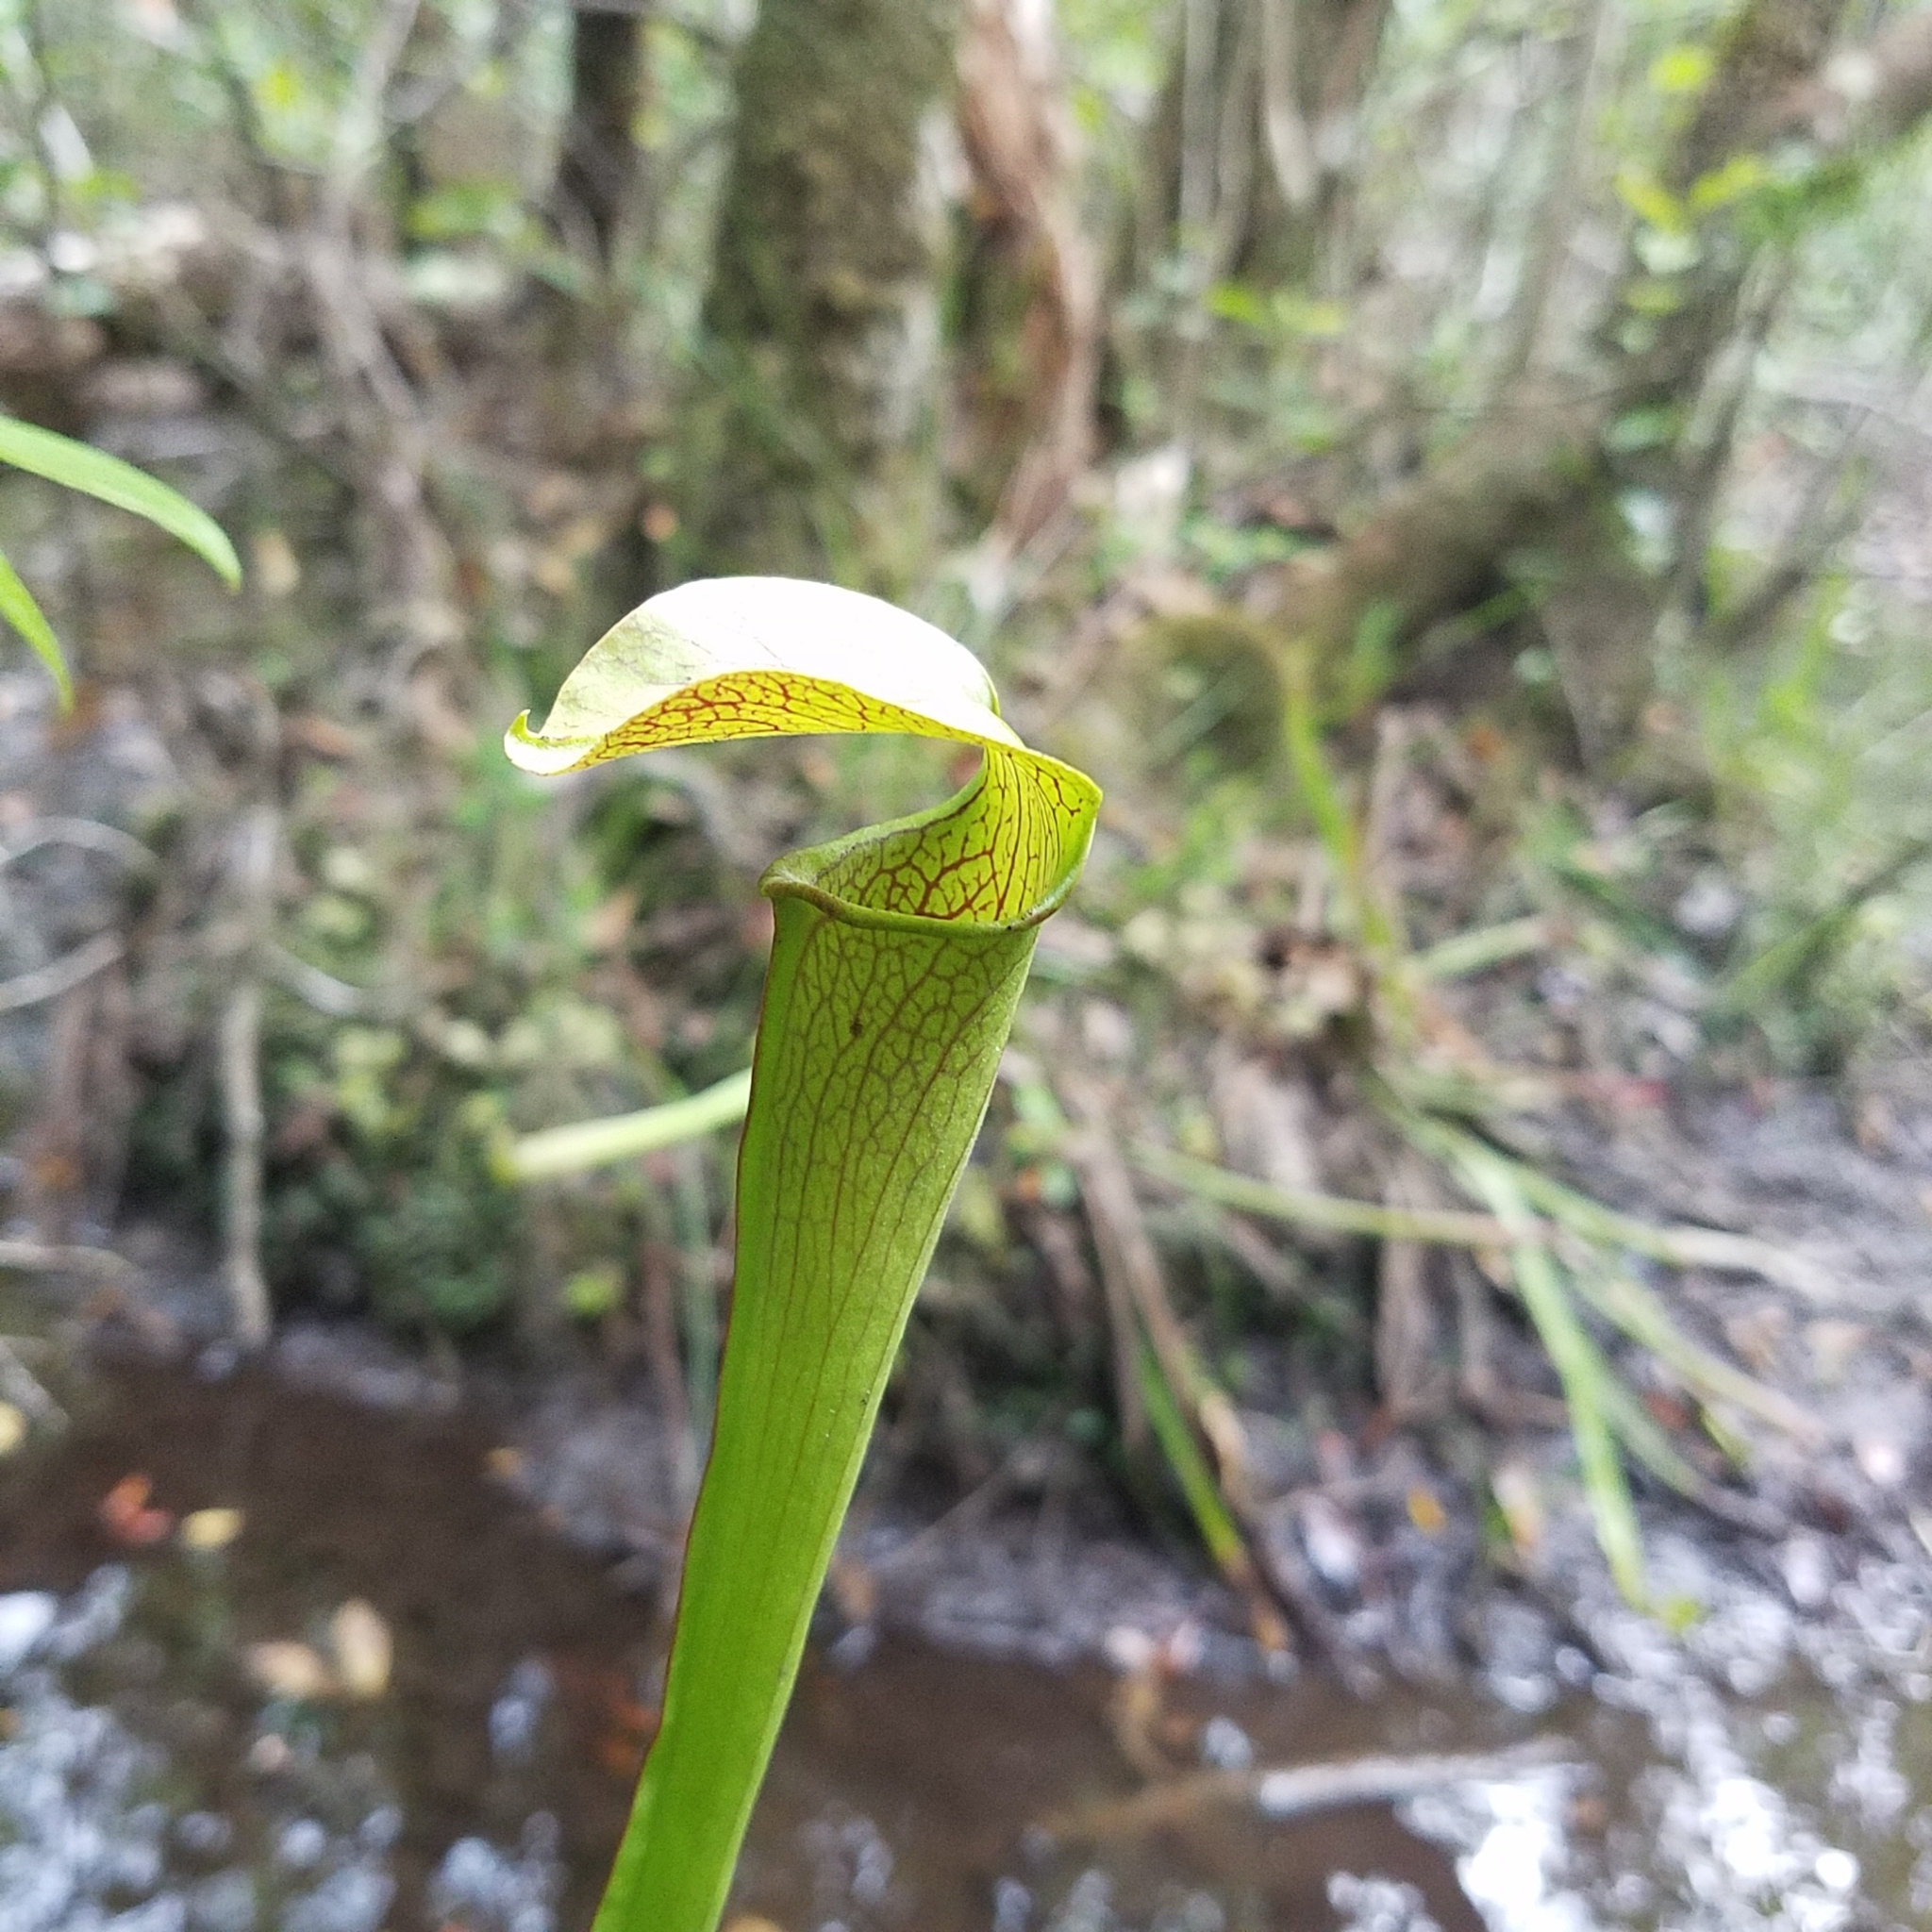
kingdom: Plantae
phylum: Tracheophyta
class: Magnoliopsida
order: Ericales
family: Sarraceniaceae
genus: Sarracenia
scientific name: Sarracenia rubra
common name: Sweet pitcherplant
